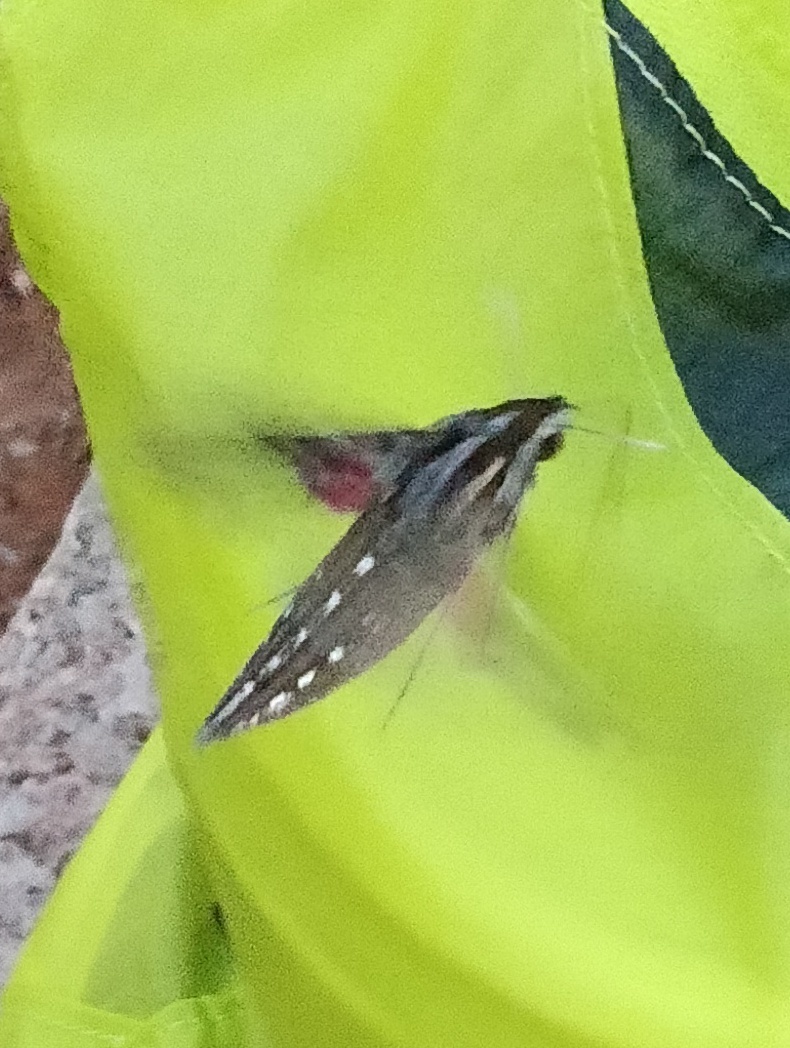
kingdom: Animalia
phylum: Arthropoda
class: Insecta
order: Lepidoptera
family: Sphingidae
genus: Hippotion
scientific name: Hippotion celerio
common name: Silver-striped hawk-moth
